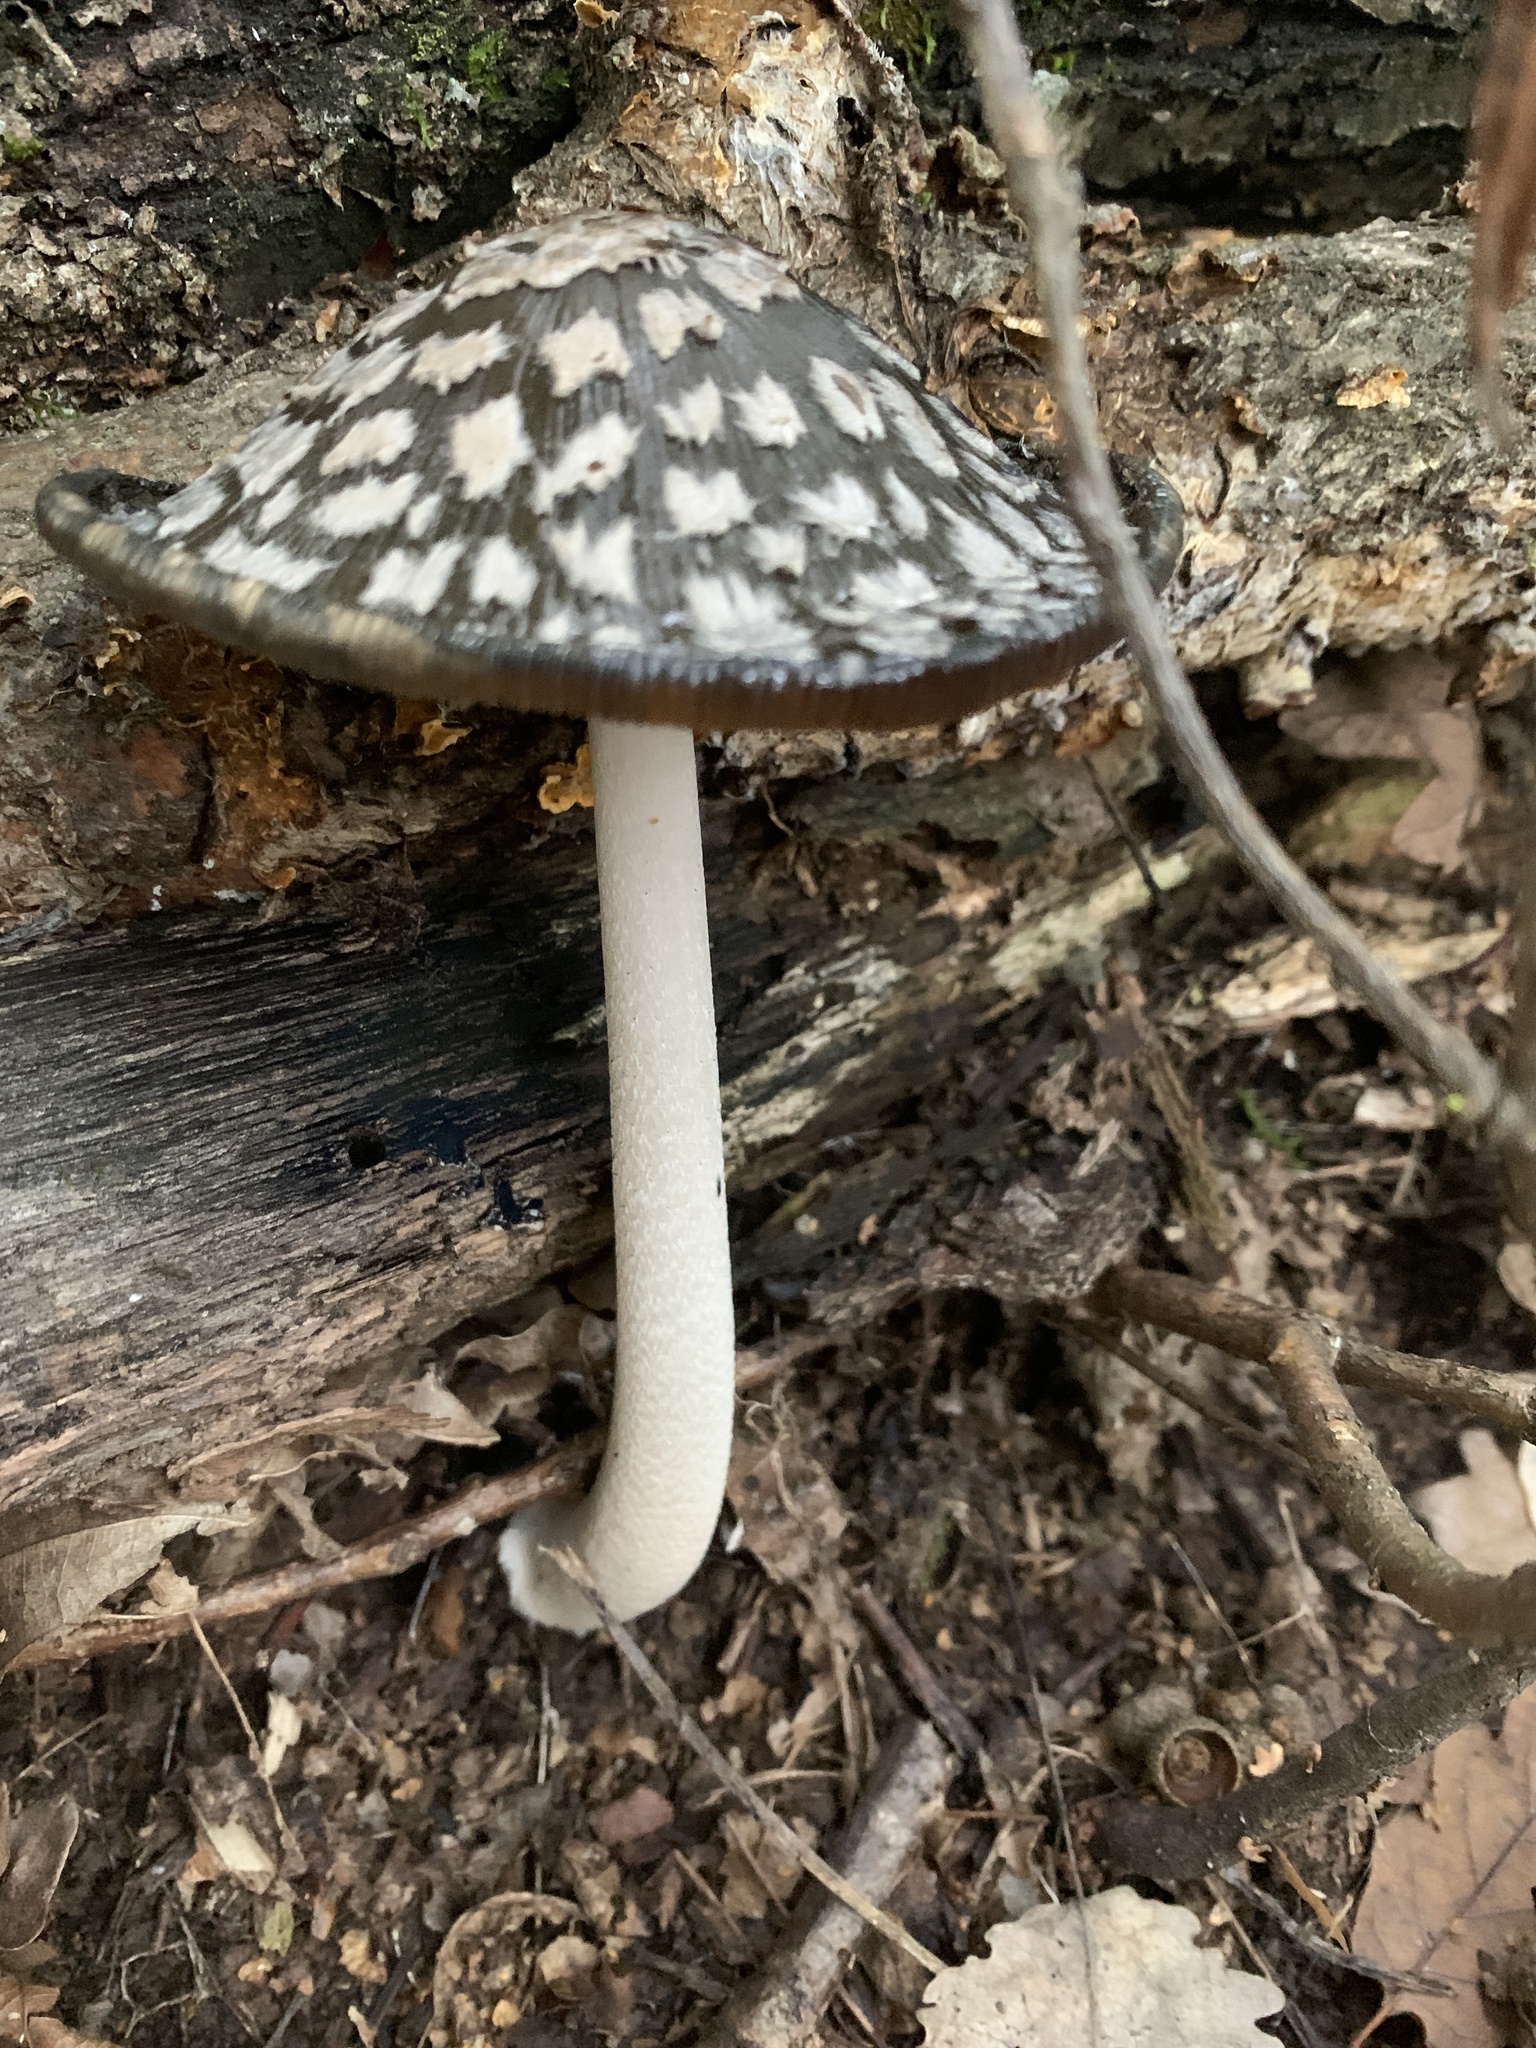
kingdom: Fungi
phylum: Basidiomycota
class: Agaricomycetes
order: Agaricales
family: Psathyrellaceae
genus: Coprinopsis
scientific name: Coprinopsis picacea
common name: Magpie inkcap
